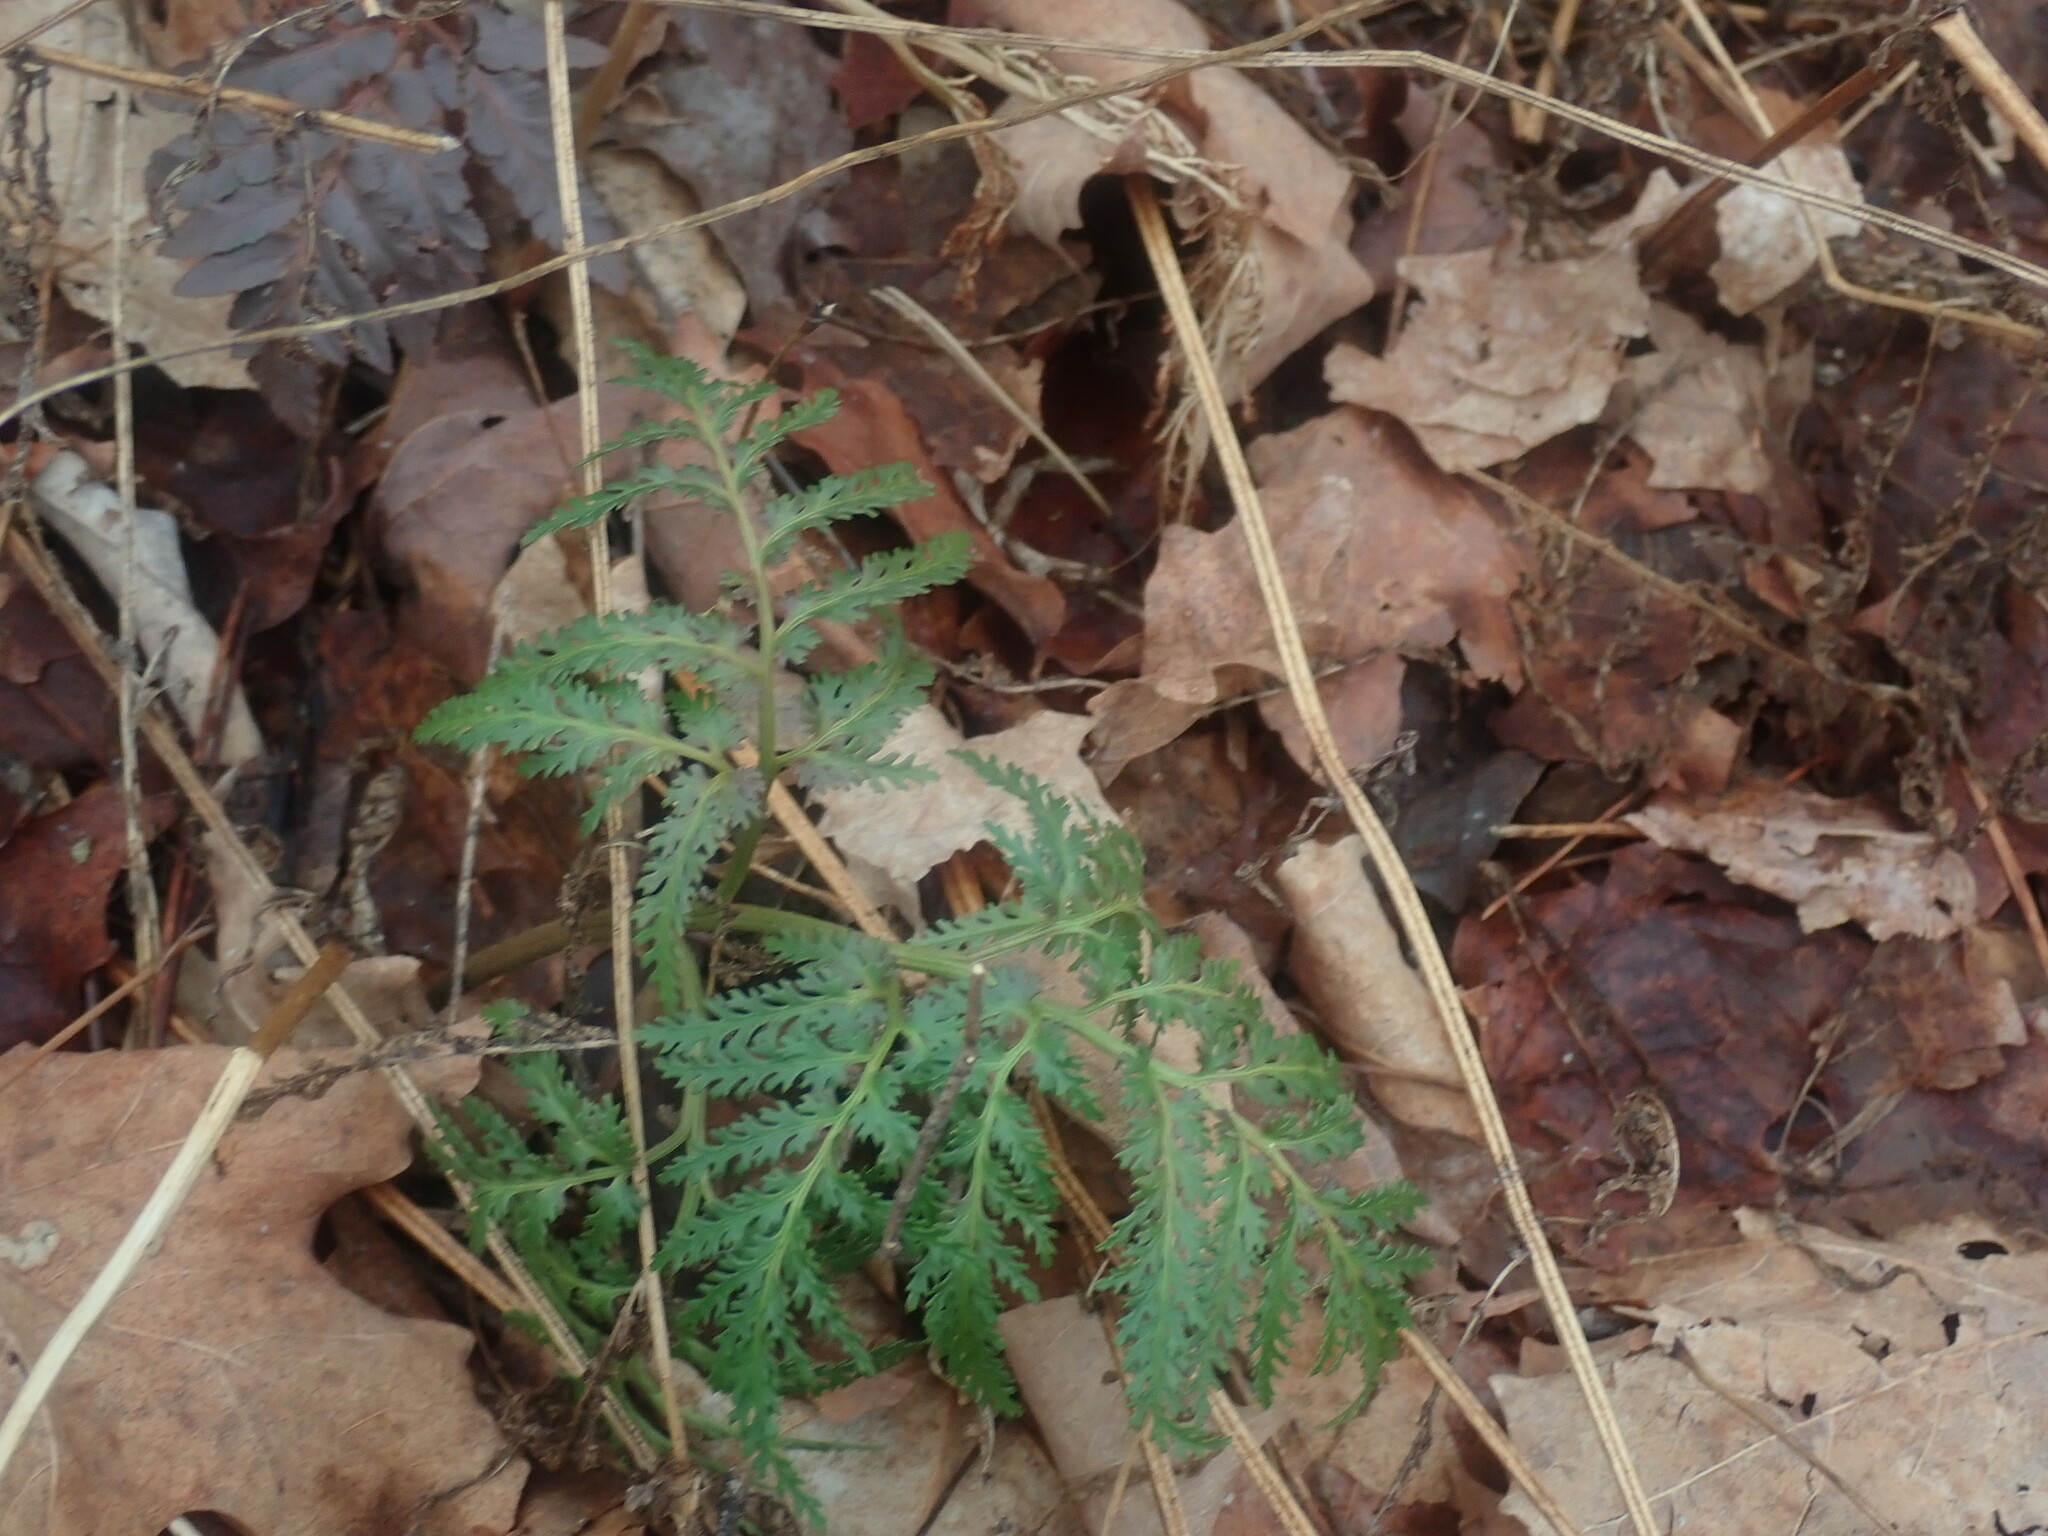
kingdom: Plantae
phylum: Tracheophyta
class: Polypodiopsida
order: Ophioglossales
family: Ophioglossaceae
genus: Sceptridium
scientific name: Sceptridium dissectum
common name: Cut-leaved grapefern
